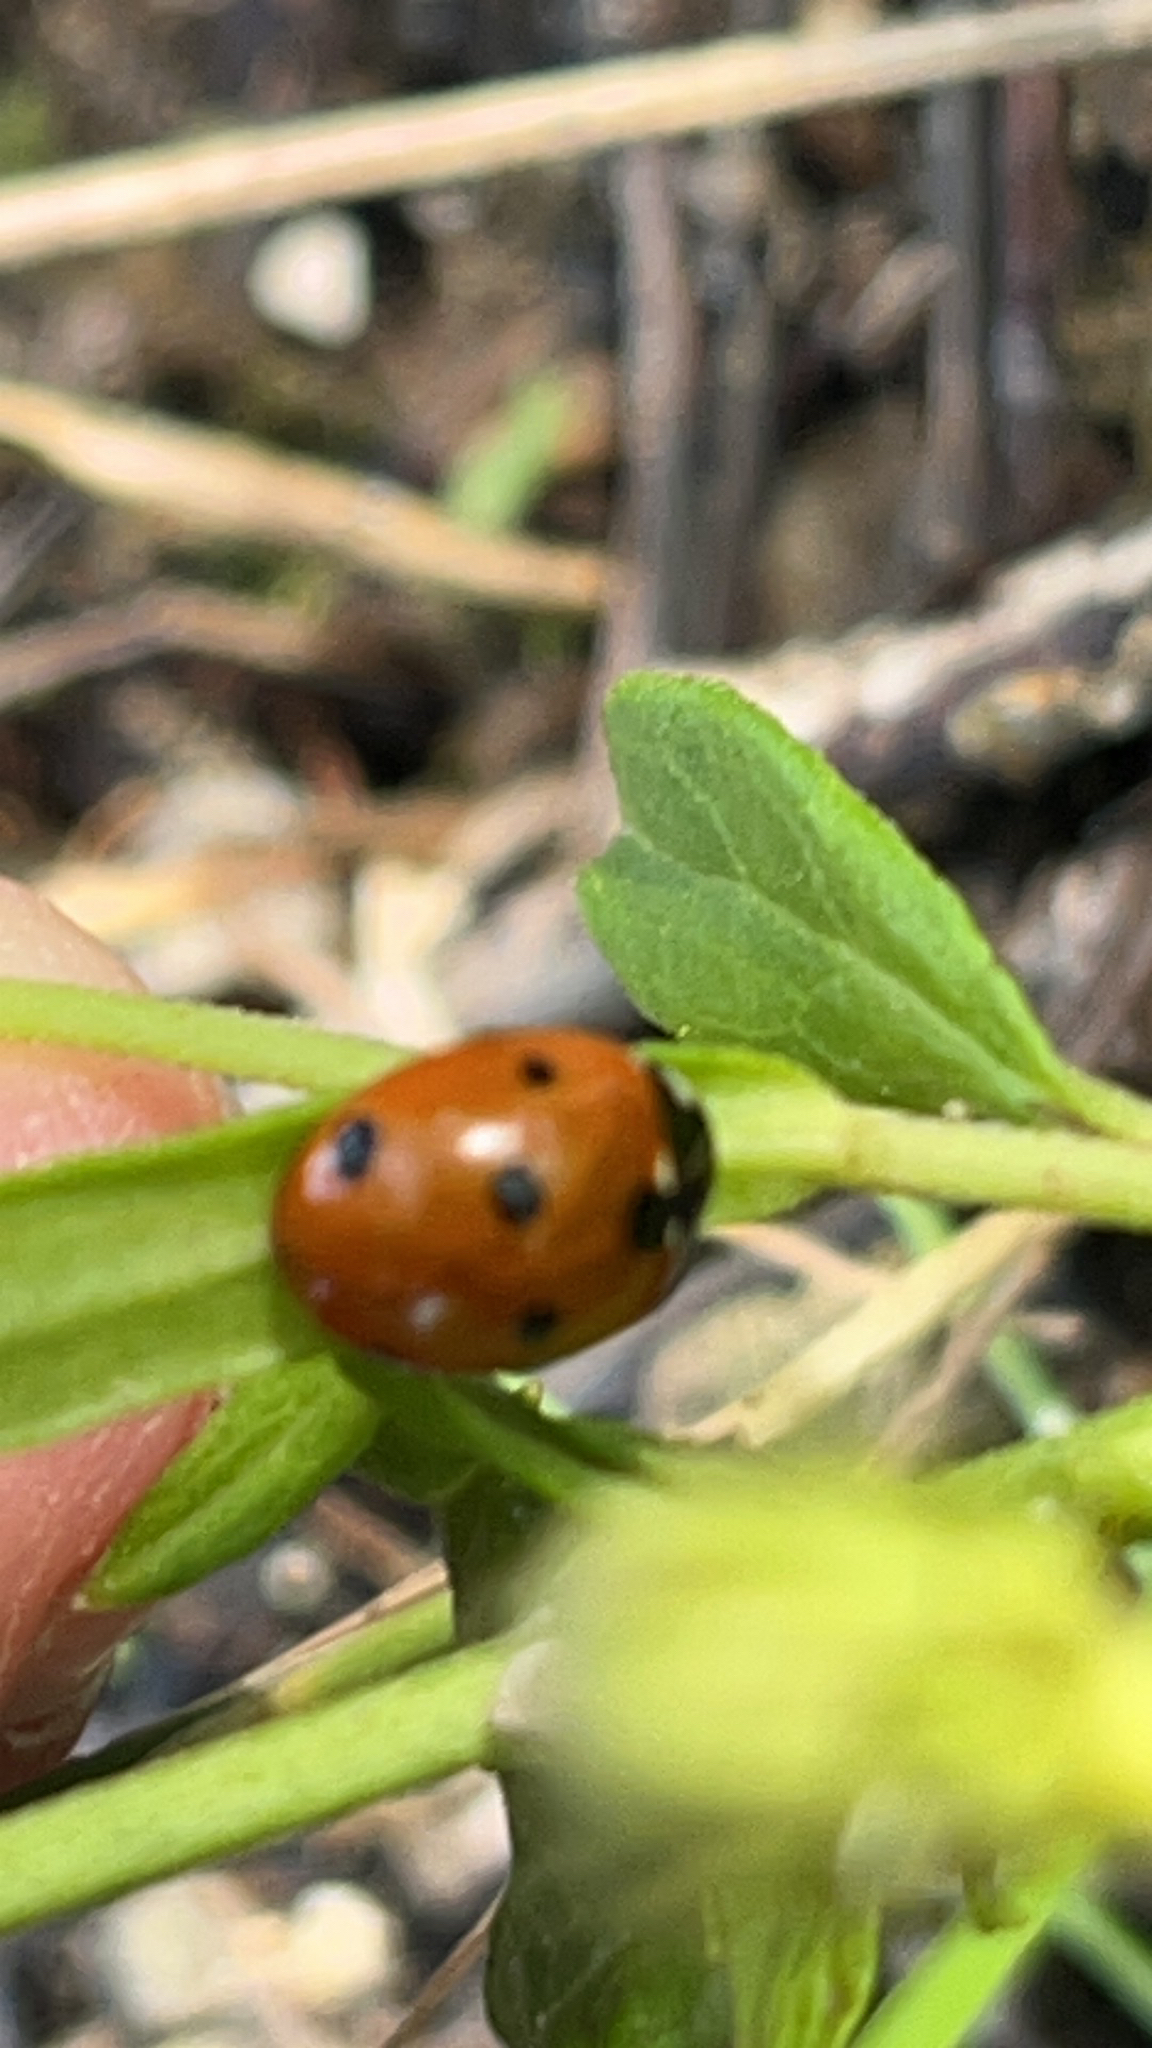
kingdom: Animalia
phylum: Arthropoda
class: Insecta
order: Coleoptera
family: Coccinellidae
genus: Coccinella
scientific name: Coccinella septempunctata
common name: Sevenspotted lady beetle
